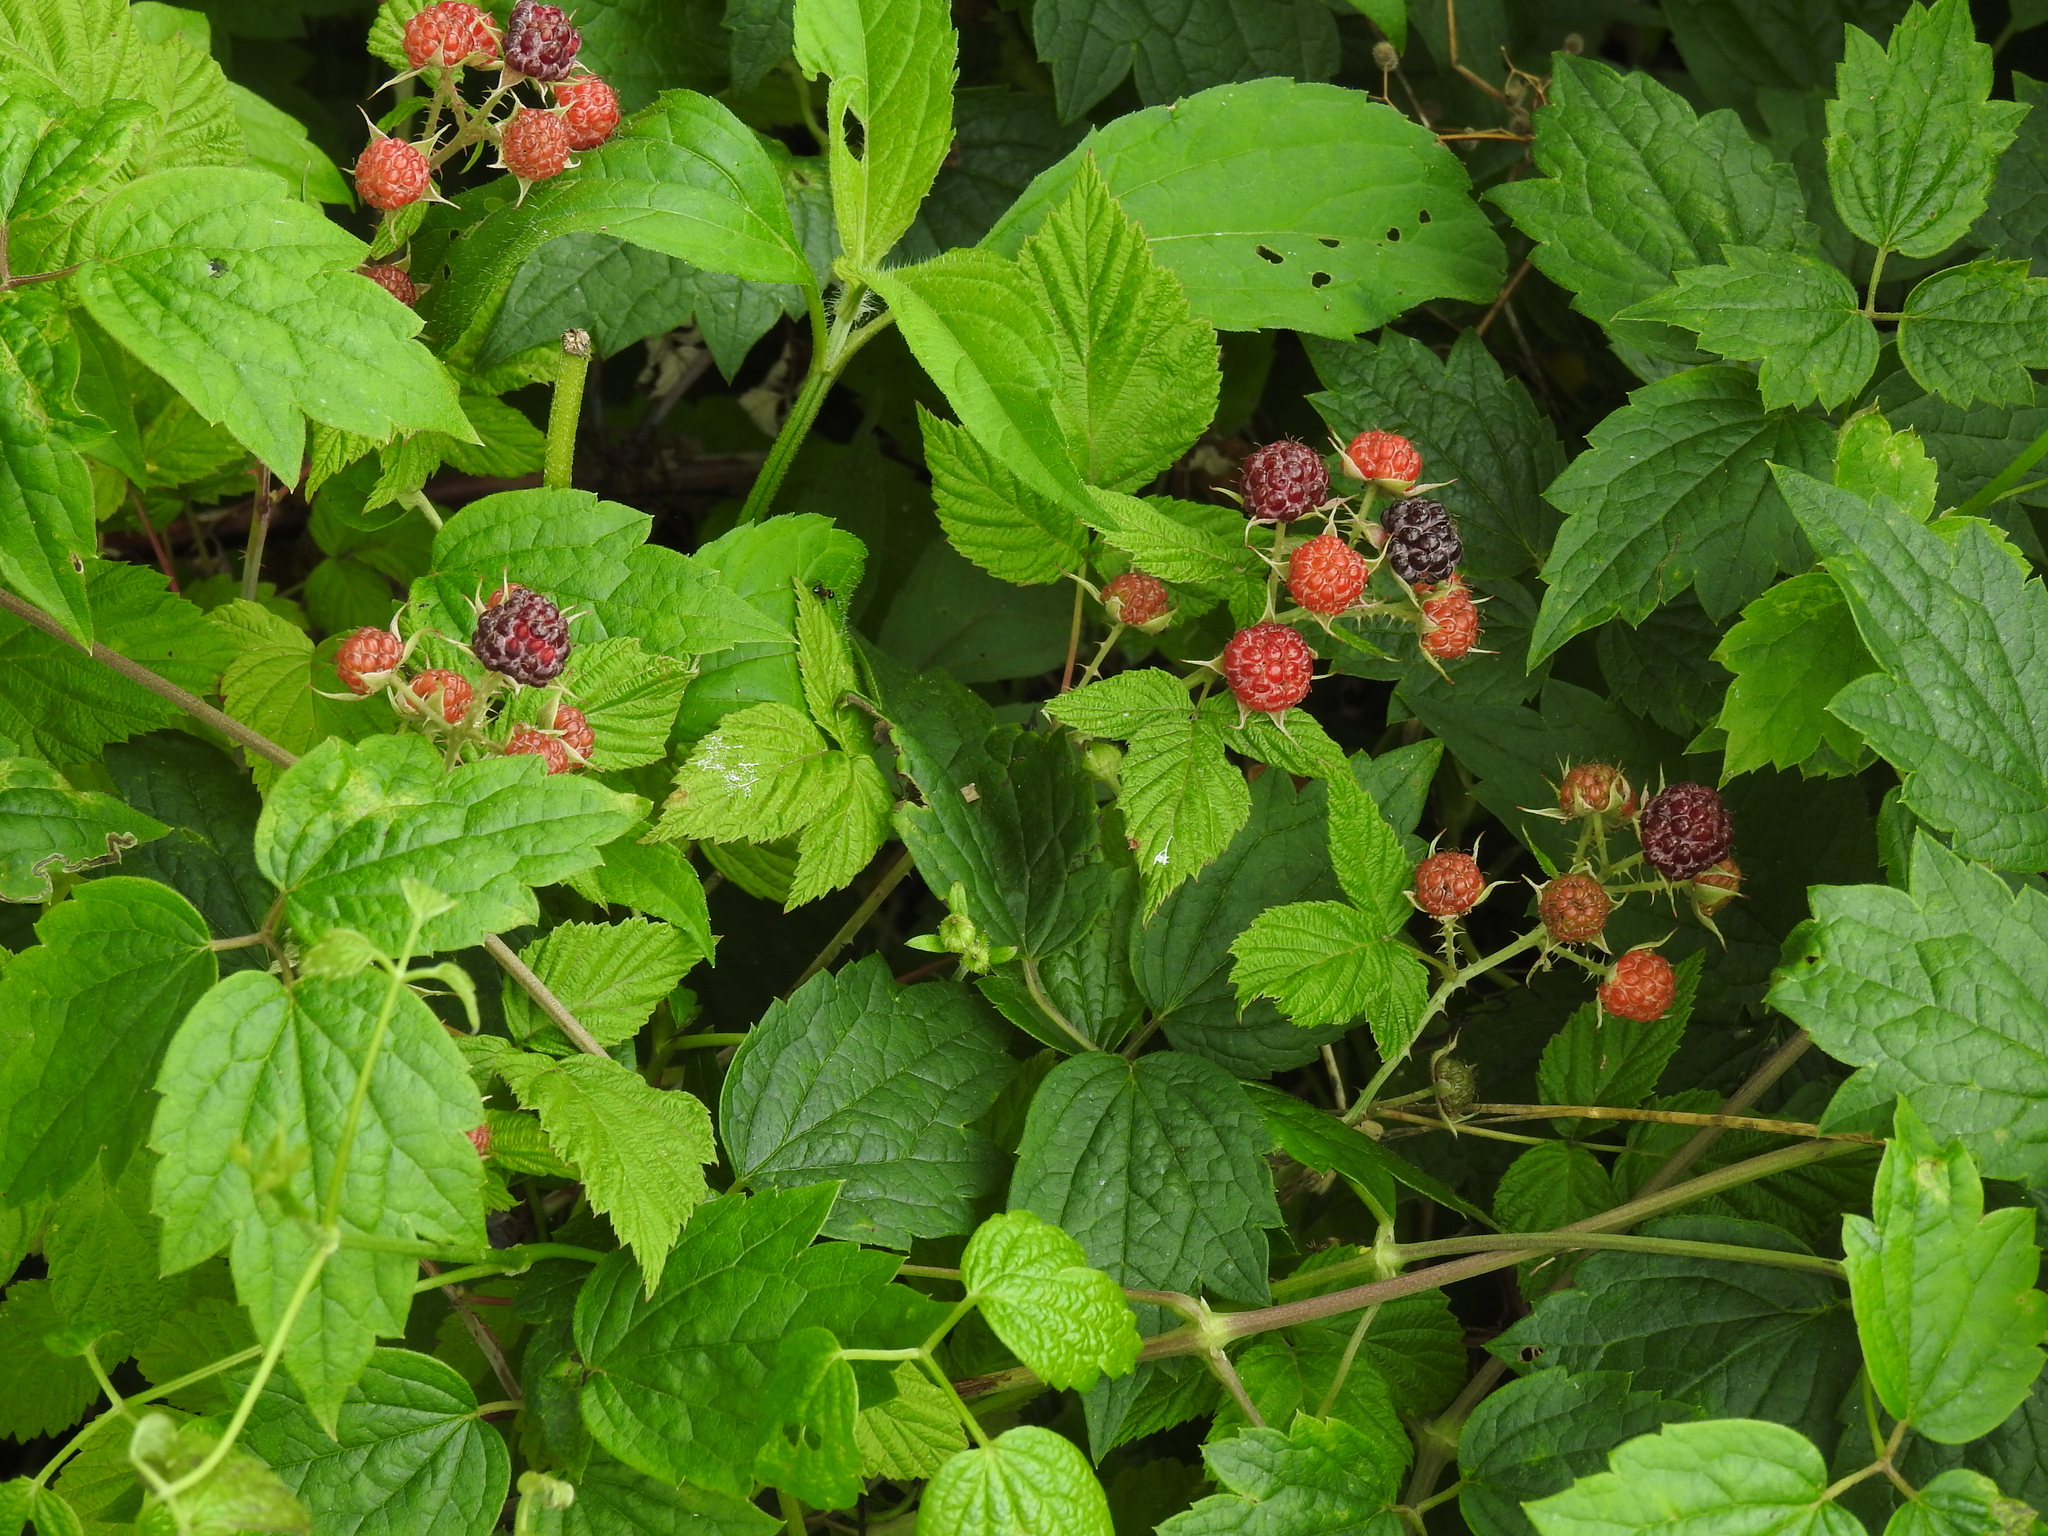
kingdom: Plantae
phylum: Tracheophyta
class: Magnoliopsida
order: Rosales
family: Rosaceae
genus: Rubus
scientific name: Rubus occidentalis
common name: Black raspberry
